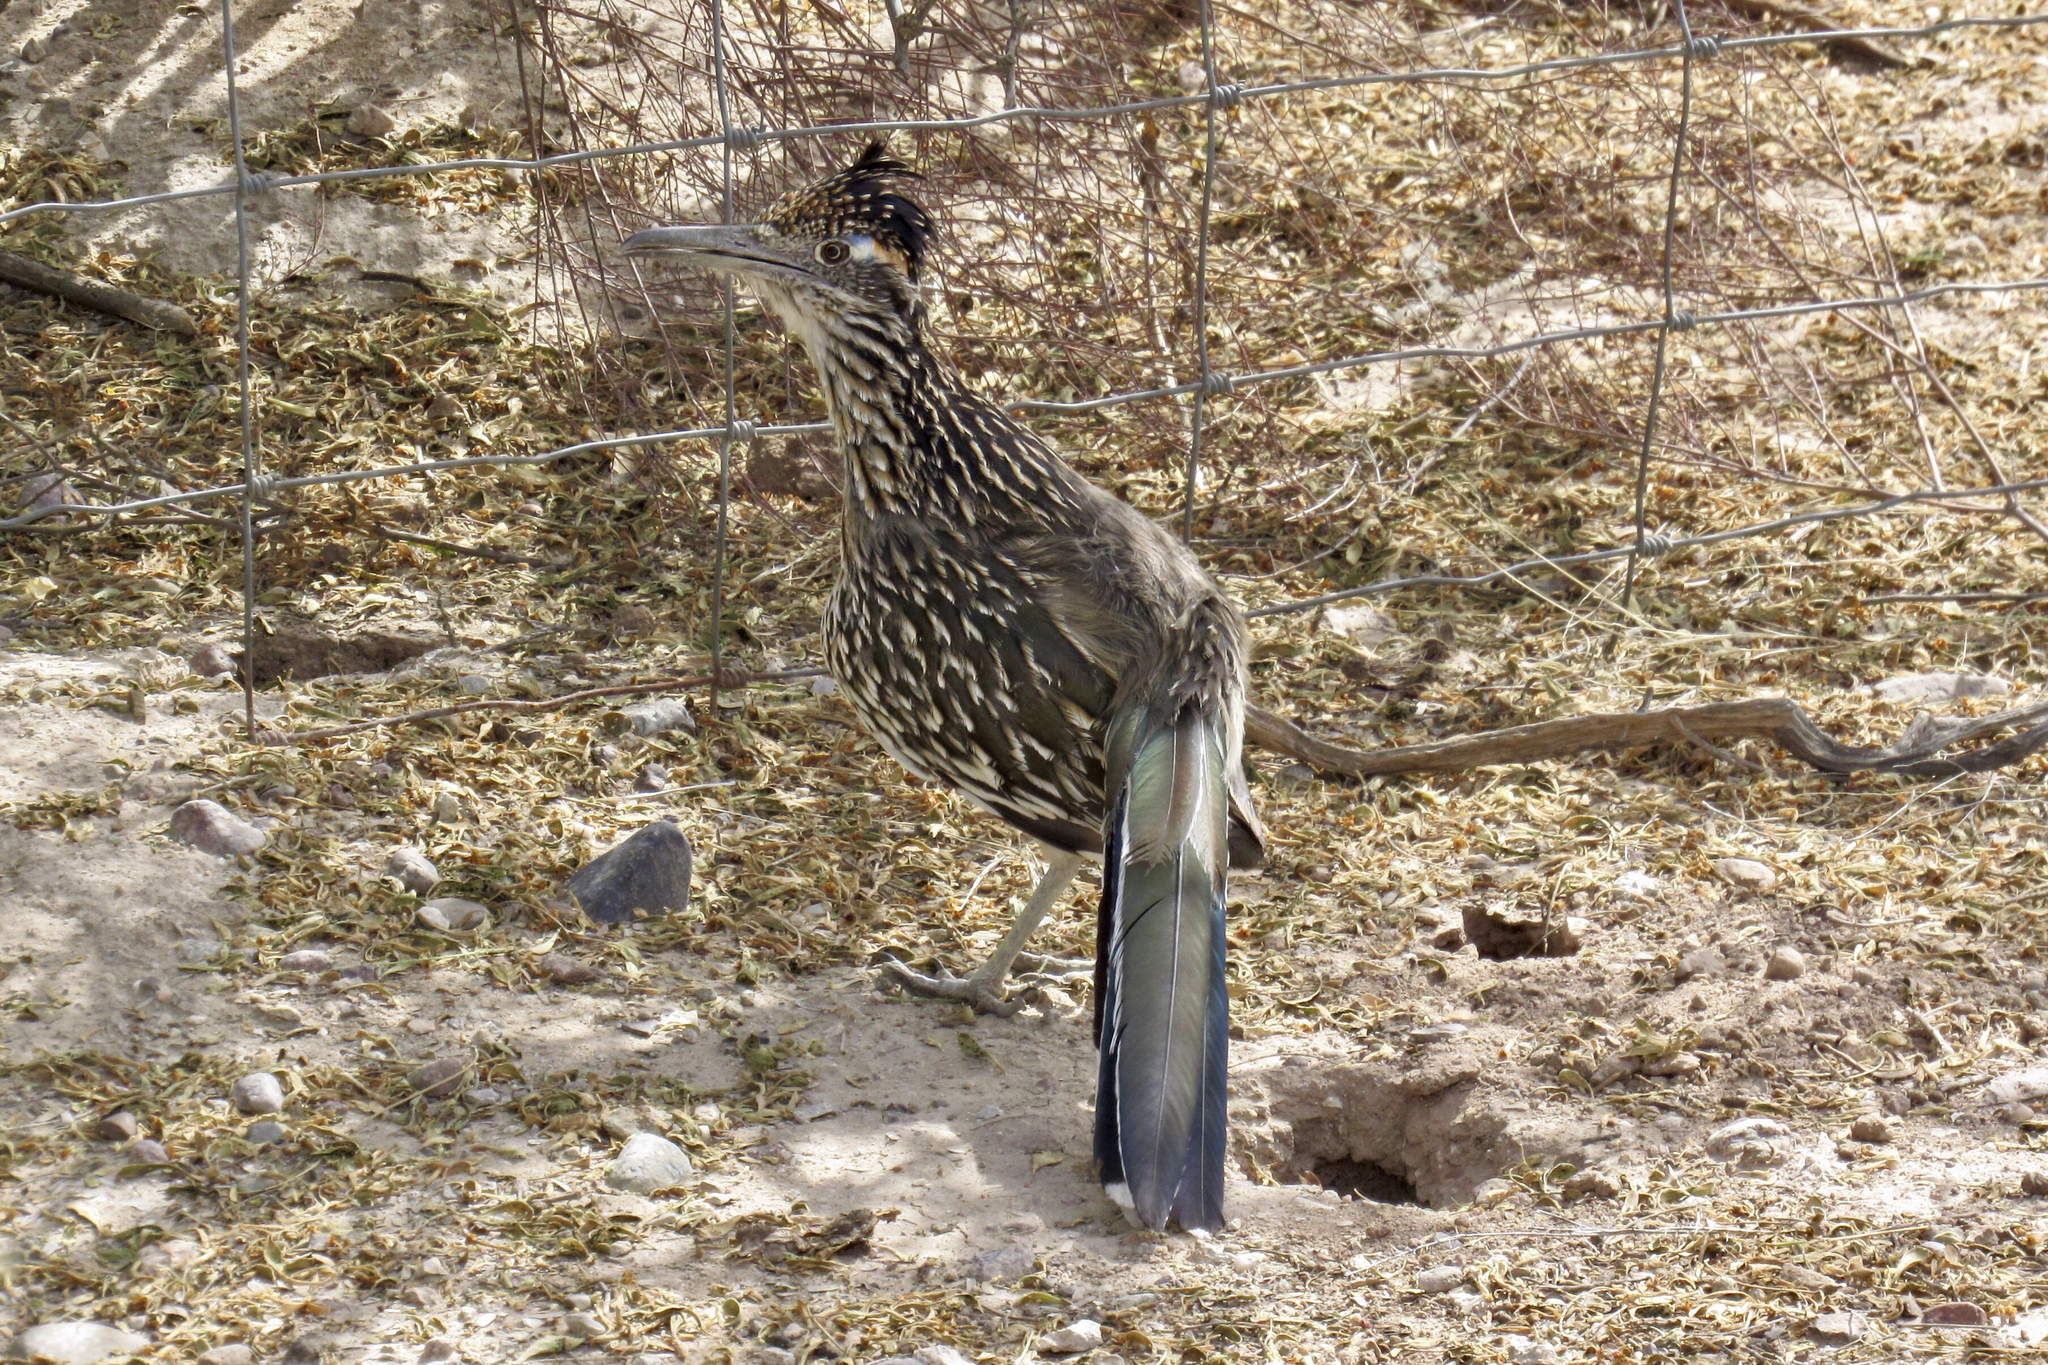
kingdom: Animalia
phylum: Chordata
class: Aves
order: Cuculiformes
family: Cuculidae
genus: Geococcyx
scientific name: Geococcyx californianus
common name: Greater roadrunner
